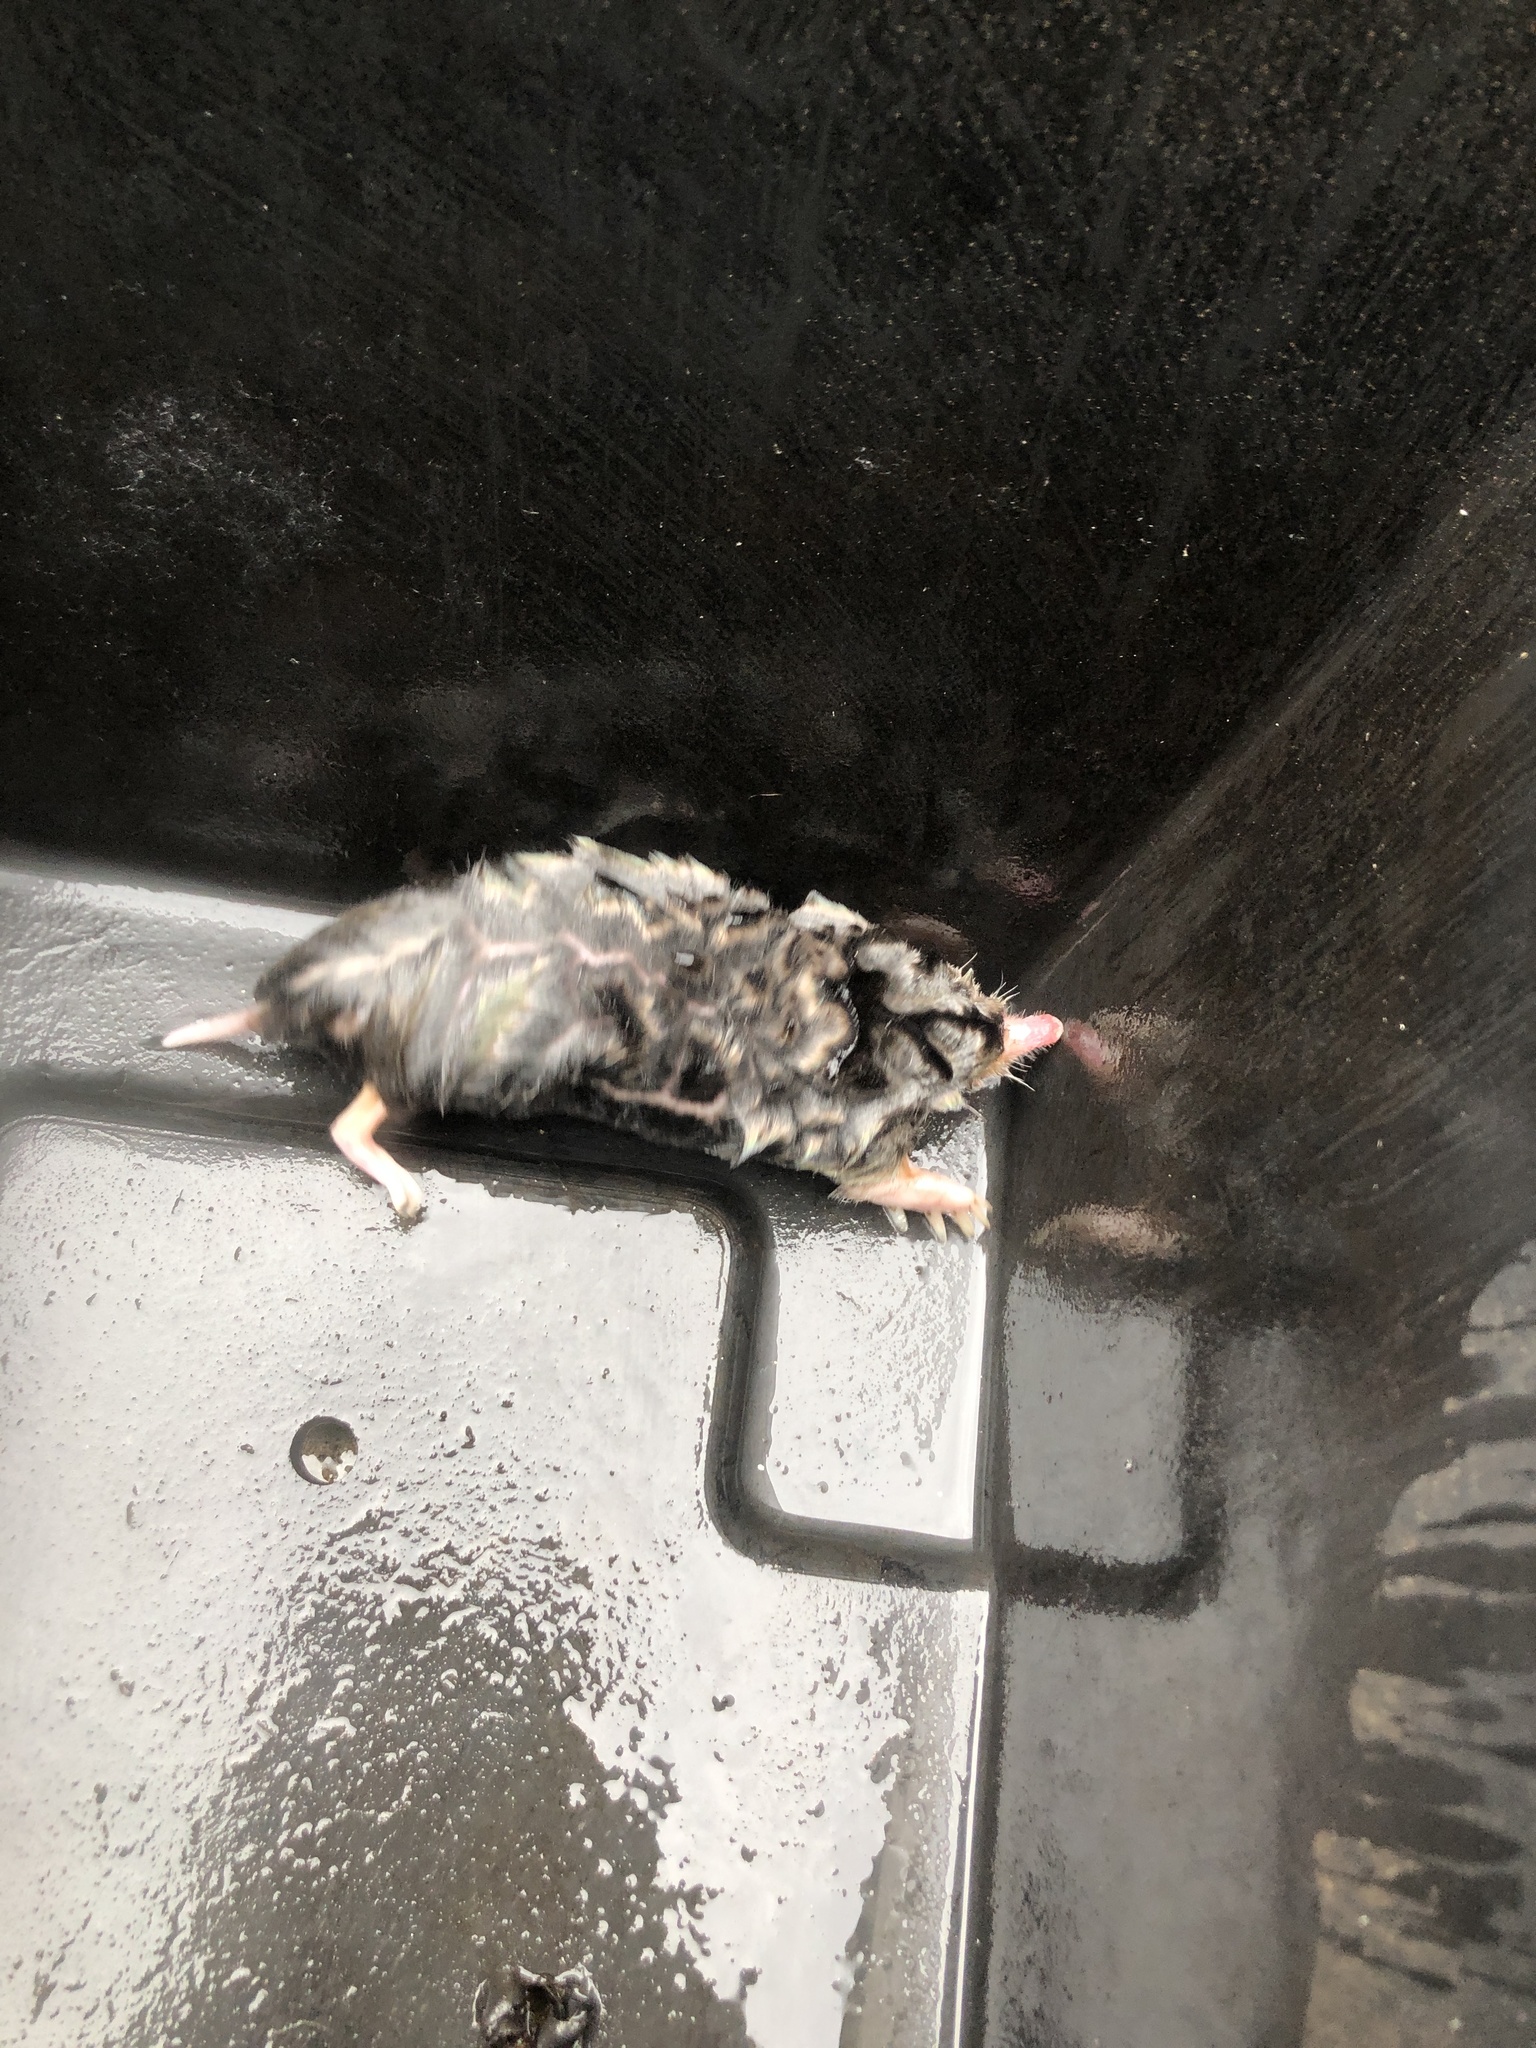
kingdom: Animalia
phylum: Chordata
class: Mammalia
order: Soricomorpha
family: Talpidae
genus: Scalopus
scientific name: Scalopus aquaticus
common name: Eastern mole
